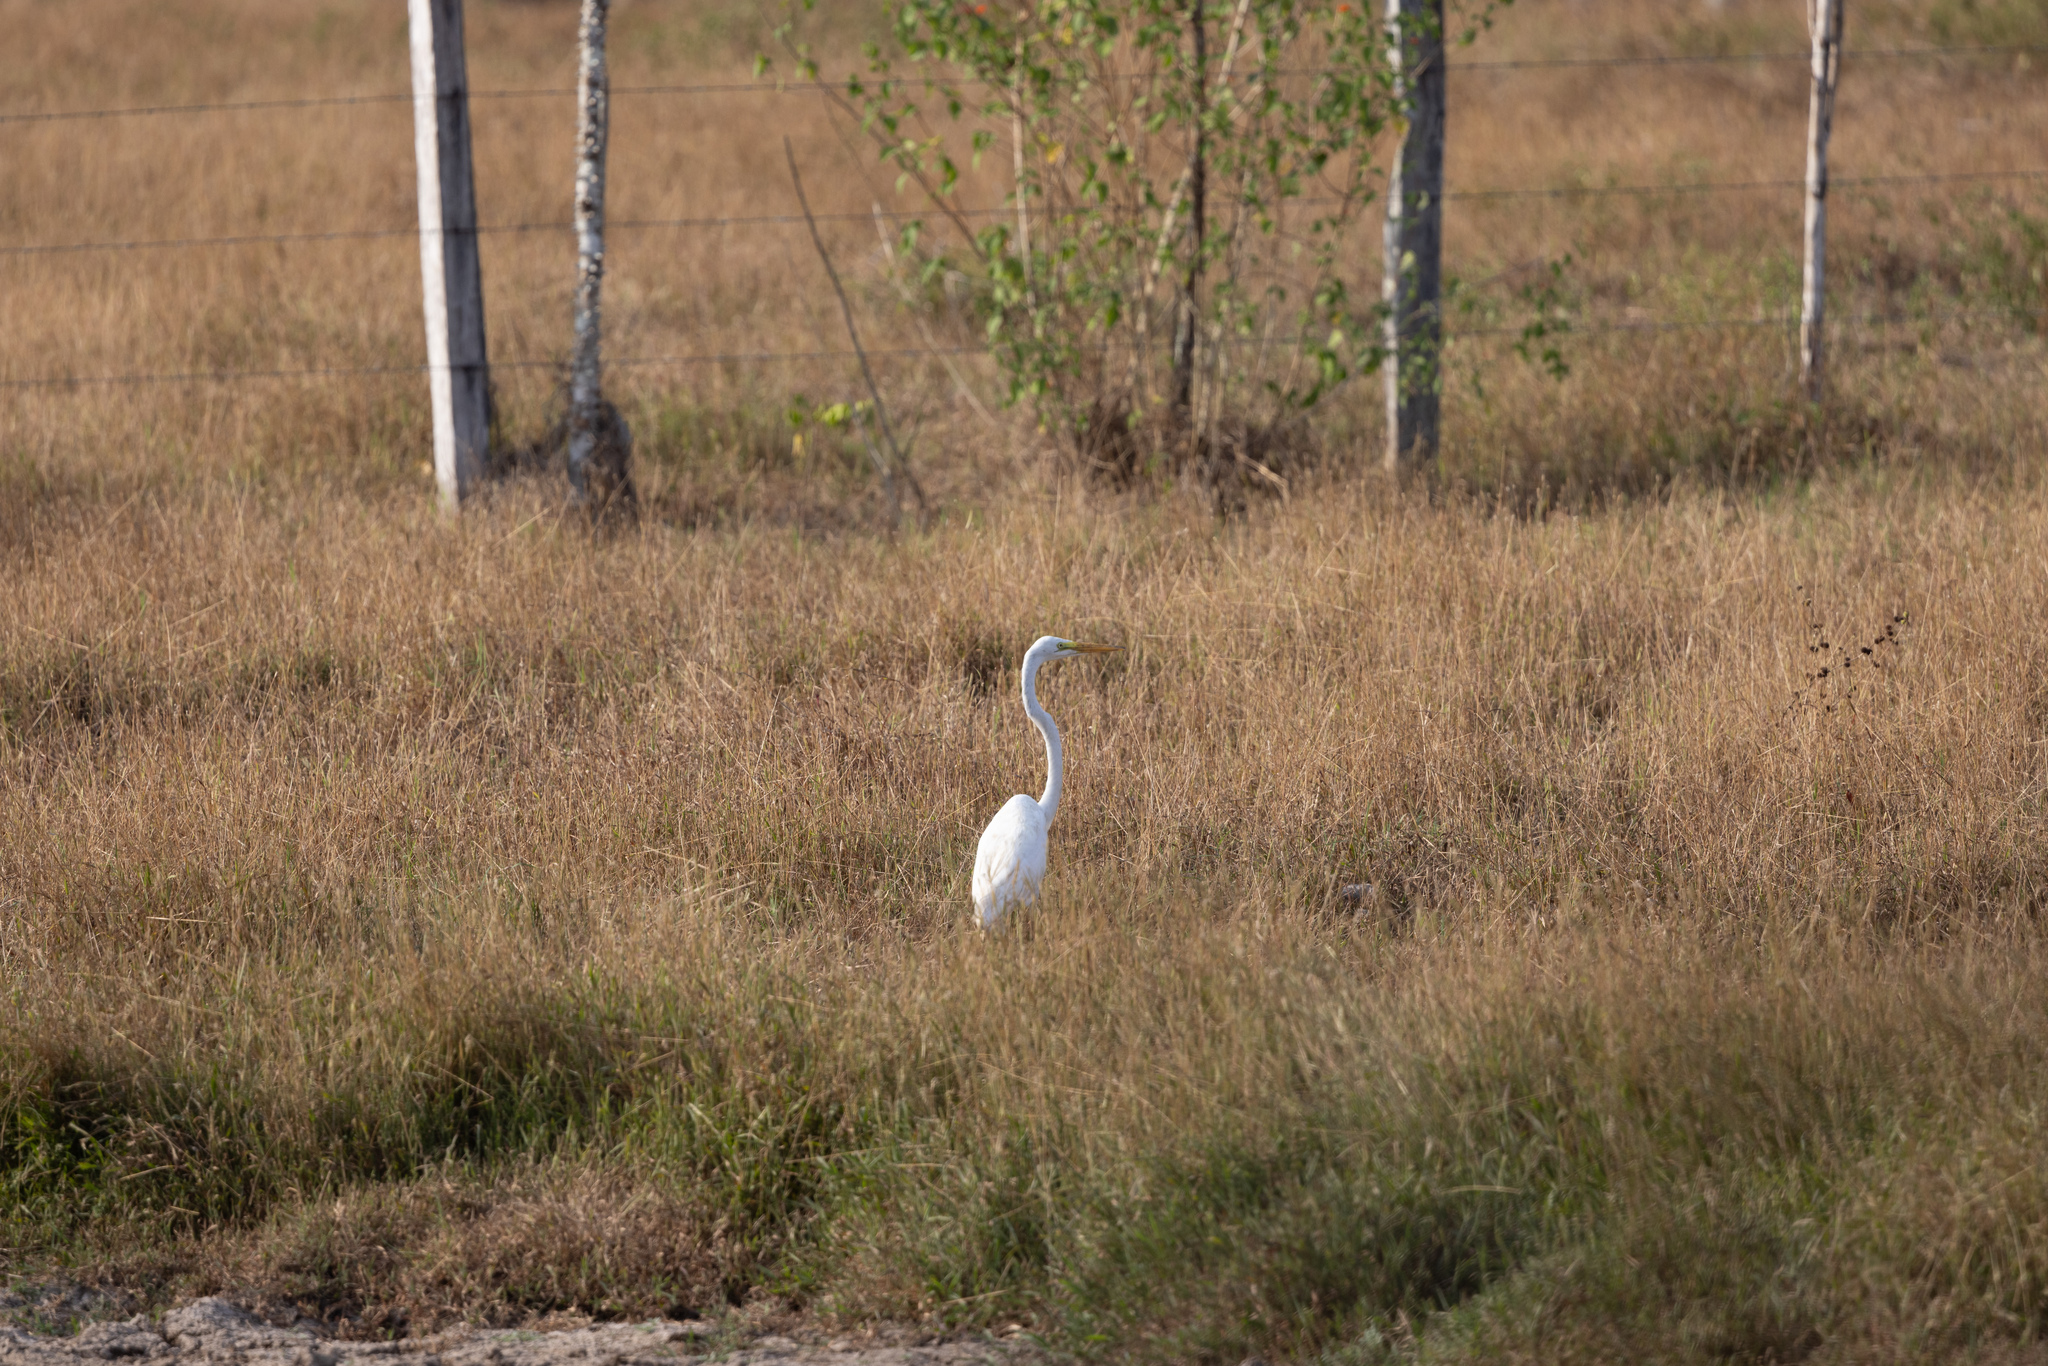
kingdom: Animalia
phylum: Chordata
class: Aves
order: Pelecaniformes
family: Ardeidae
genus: Ardea
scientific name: Ardea alba
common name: Great egret
